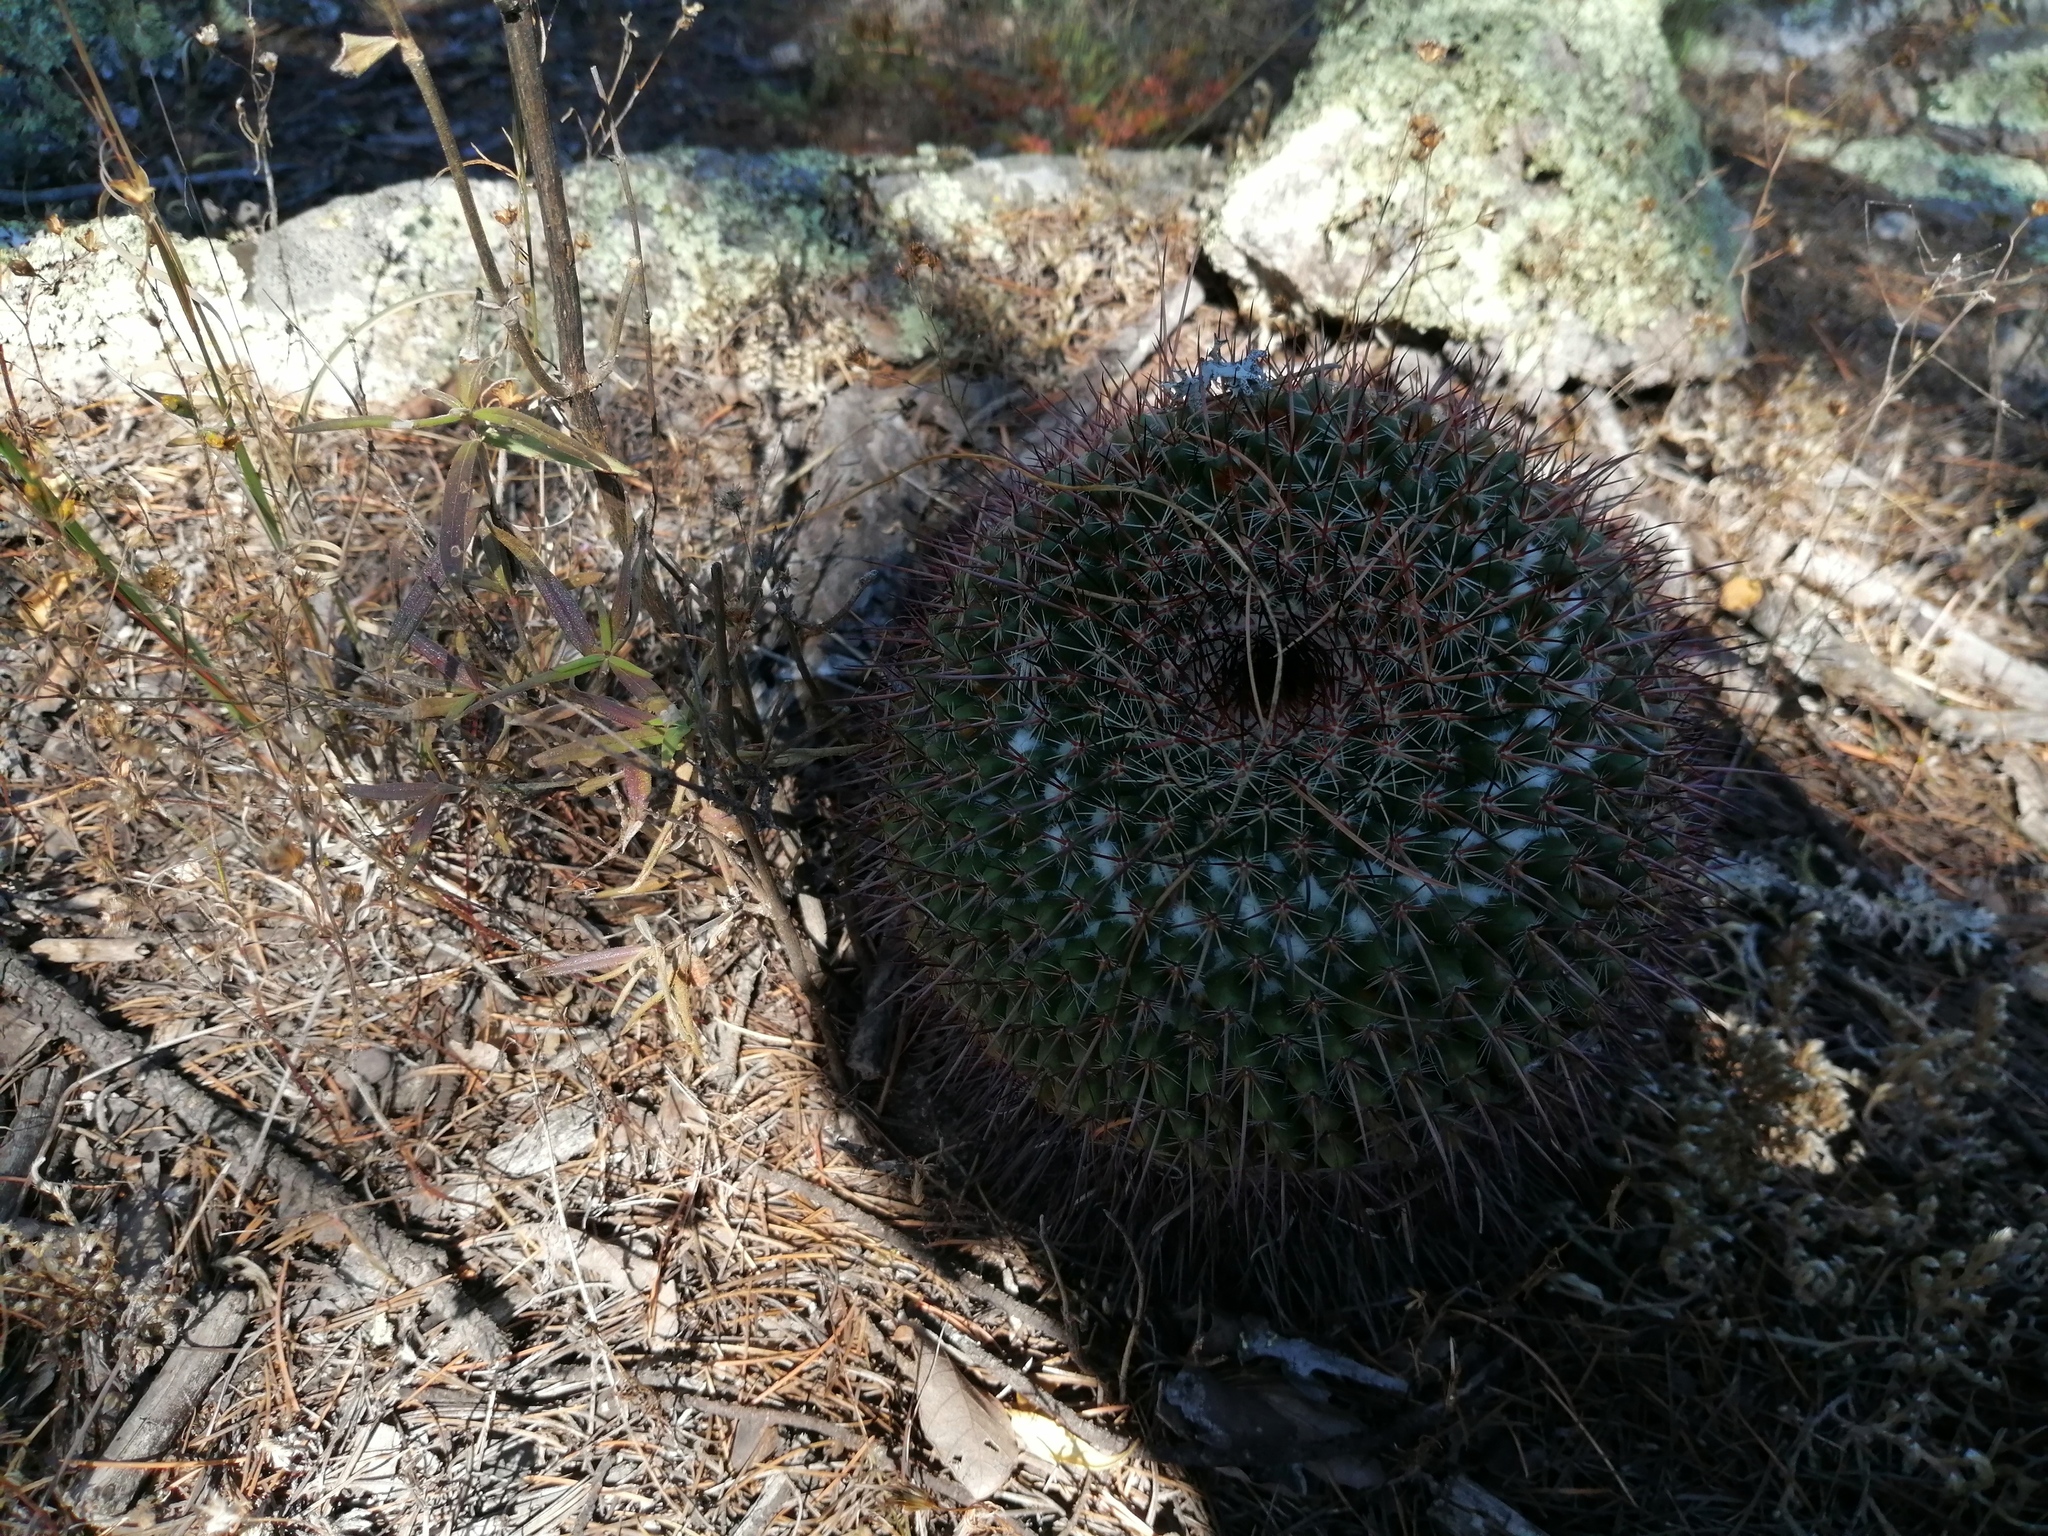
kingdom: Plantae
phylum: Tracheophyta
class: Magnoliopsida
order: Caryophyllales
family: Cactaceae
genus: Mammillaria
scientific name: Mammillaria gigantea
